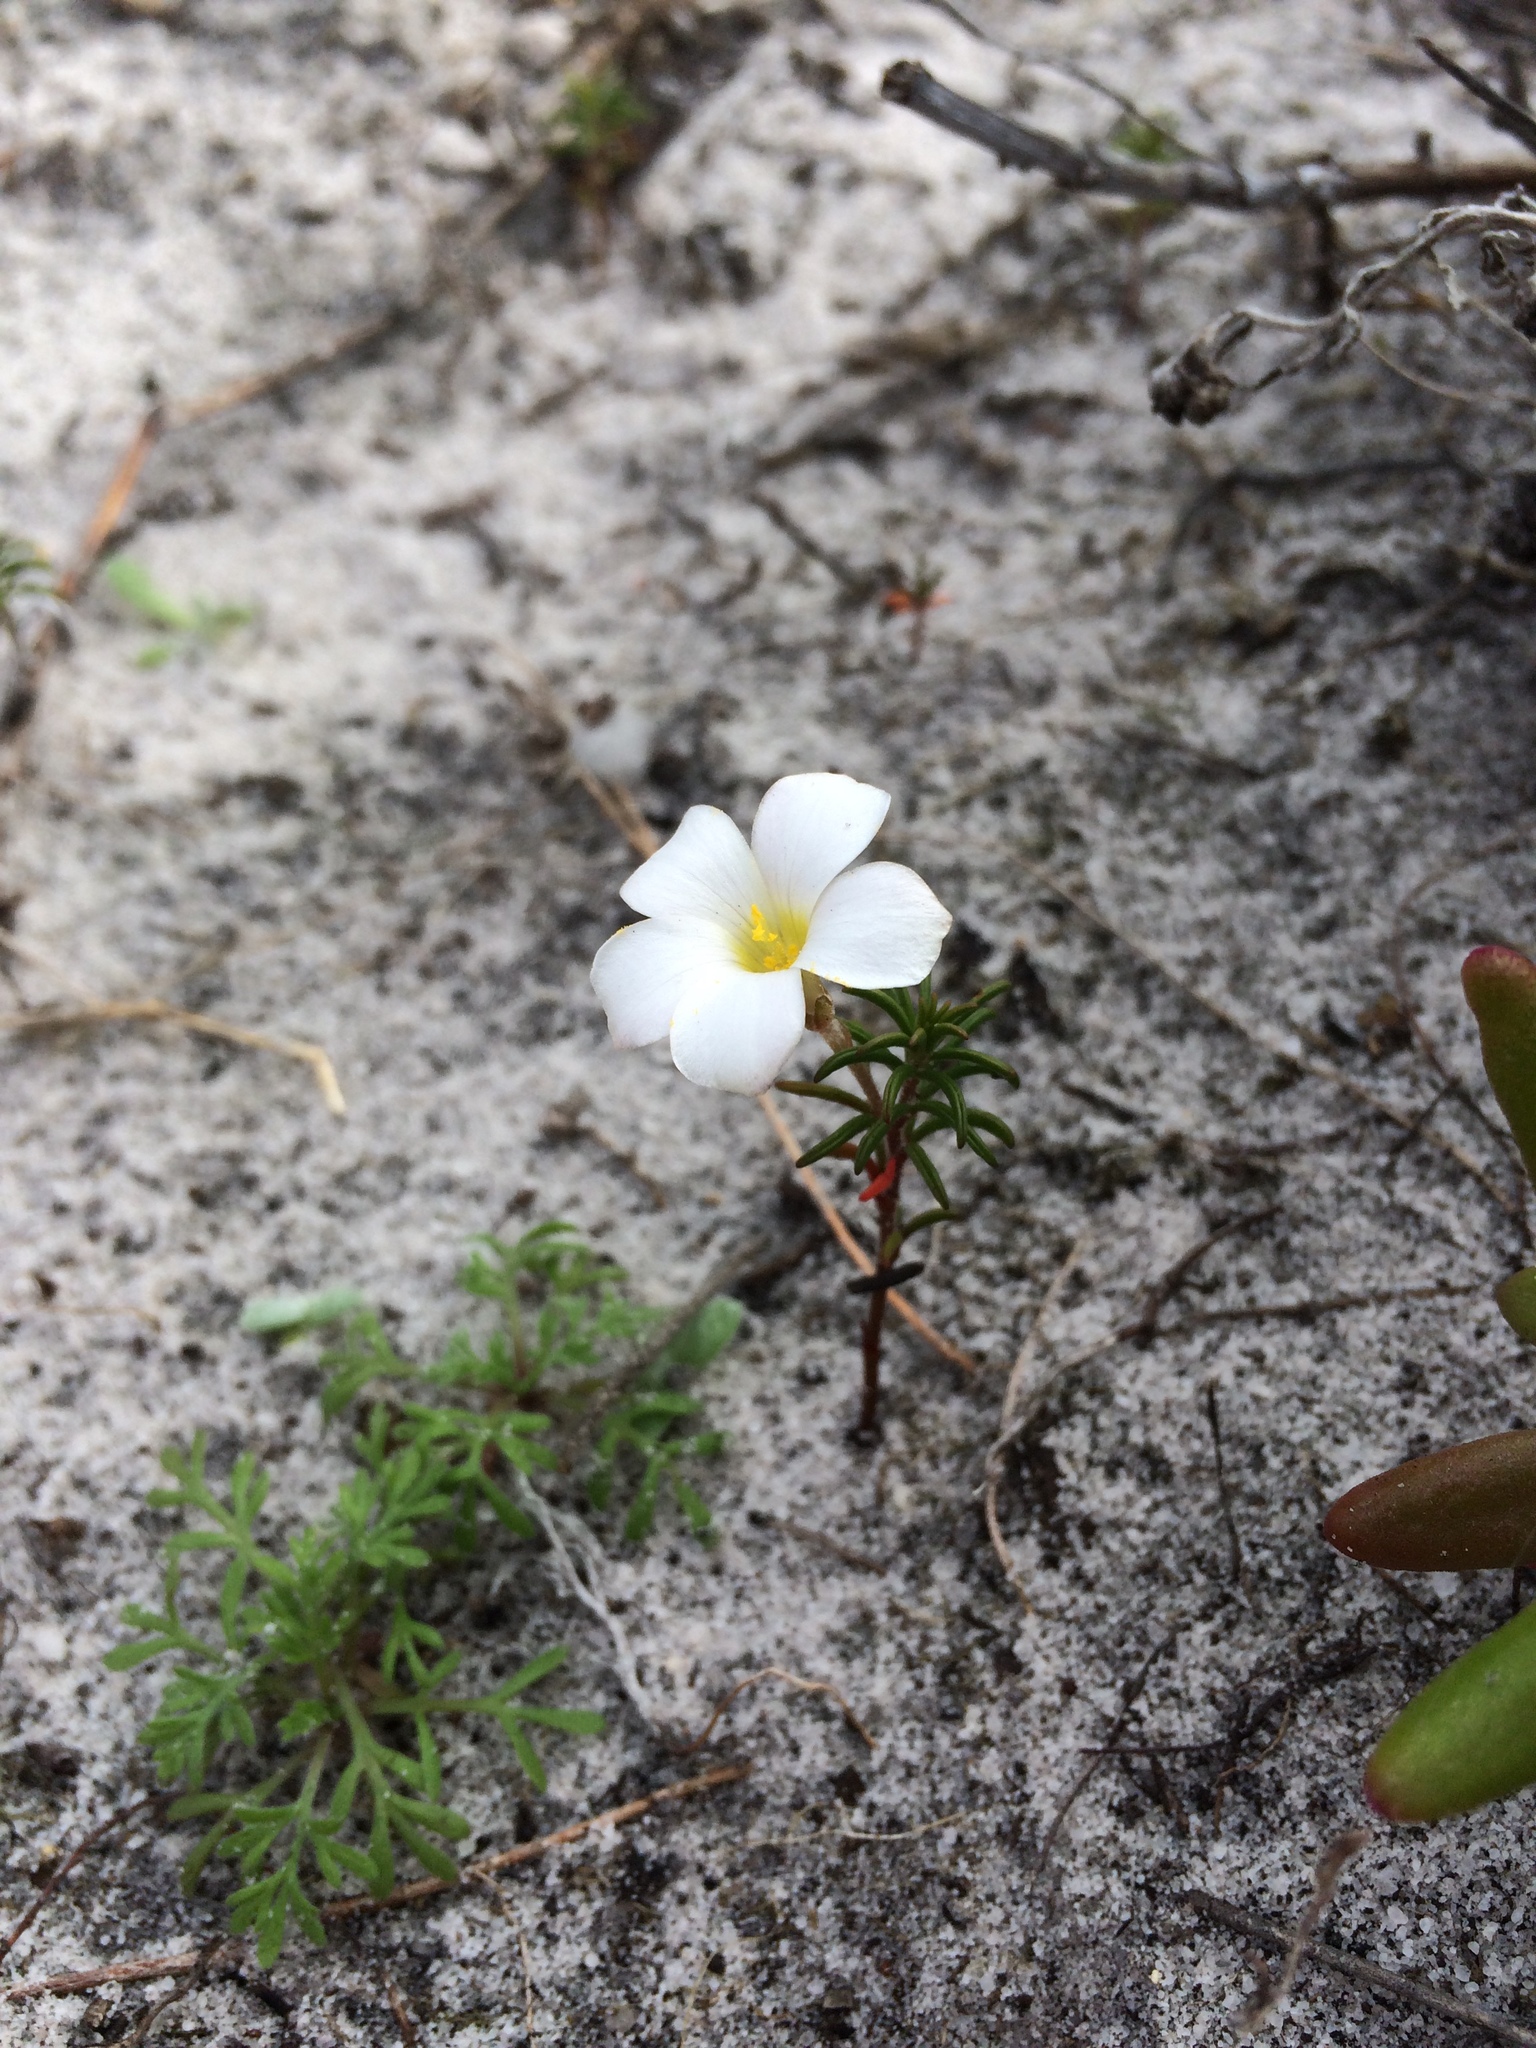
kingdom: Plantae
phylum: Tracheophyta
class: Magnoliopsida
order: Oxalidales
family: Oxalidaceae
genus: Oxalis
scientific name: Oxalis hirta
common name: Tropical woodsorrel
